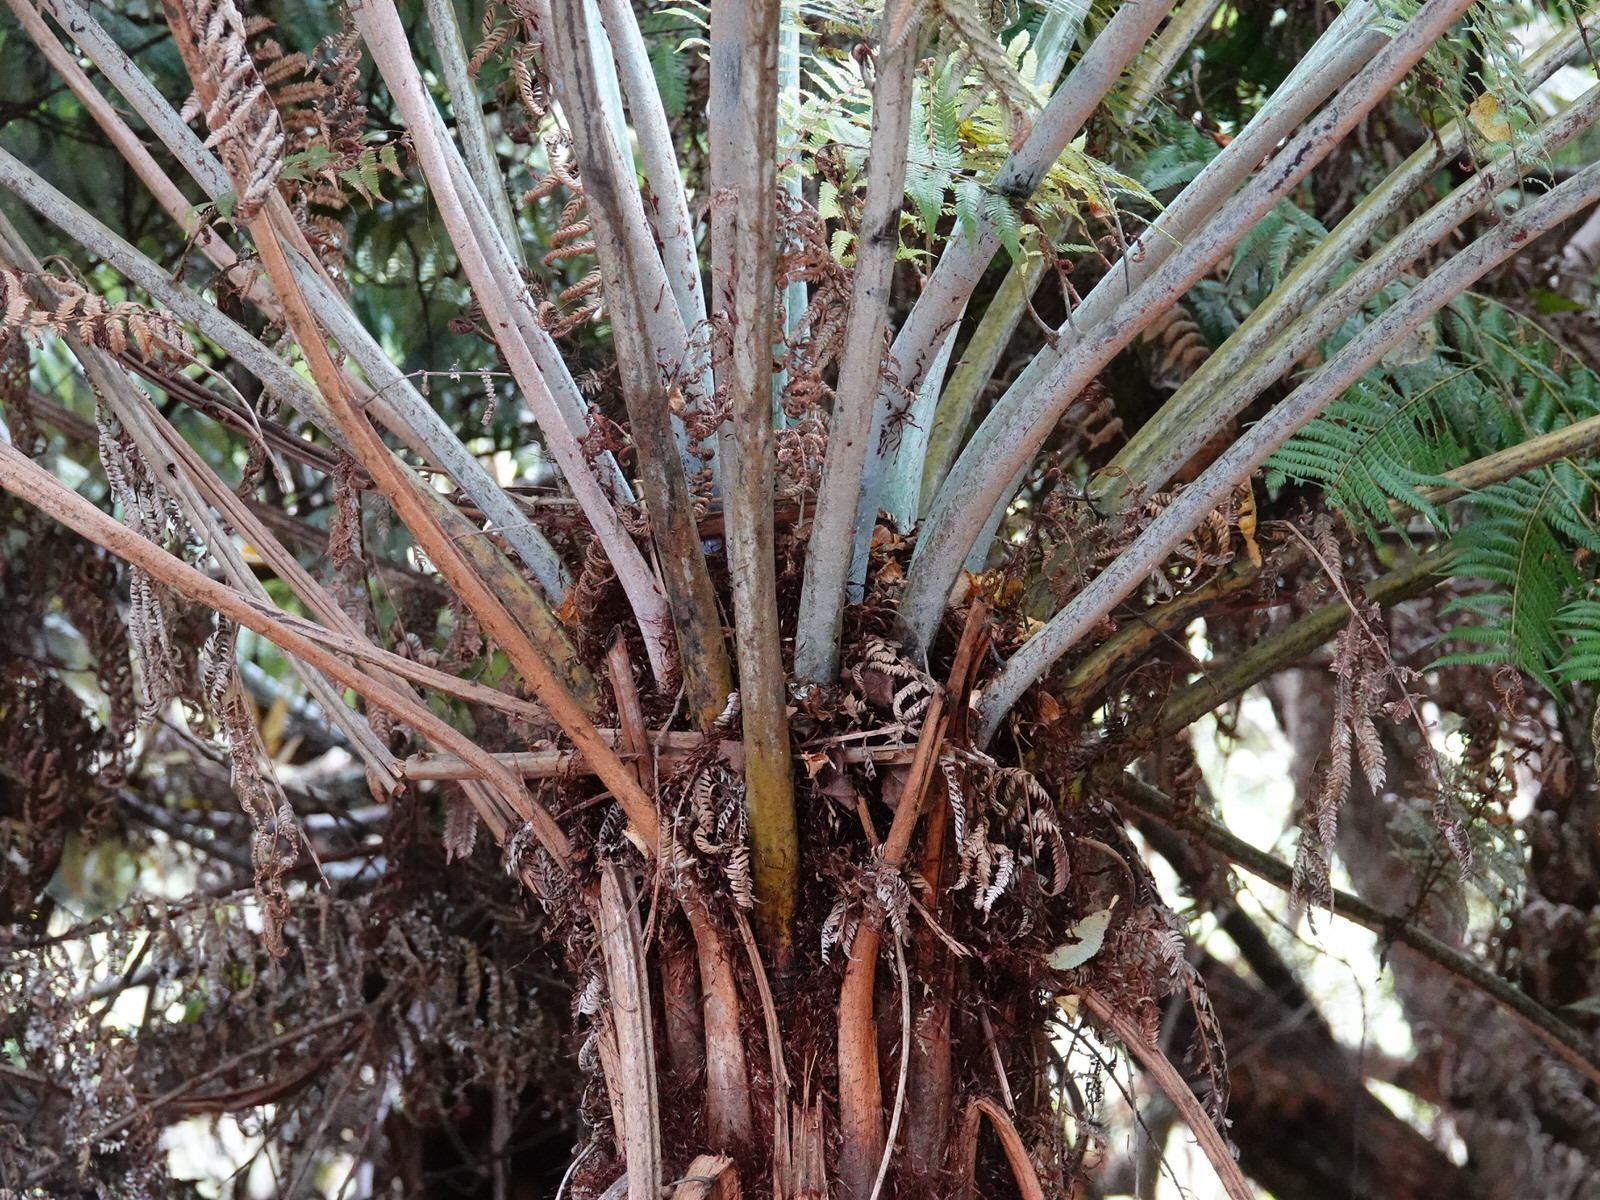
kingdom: Plantae
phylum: Tracheophyta
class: Polypodiopsida
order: Cyatheales
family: Cyatheaceae
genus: Alsophila
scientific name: Alsophila dealbata
